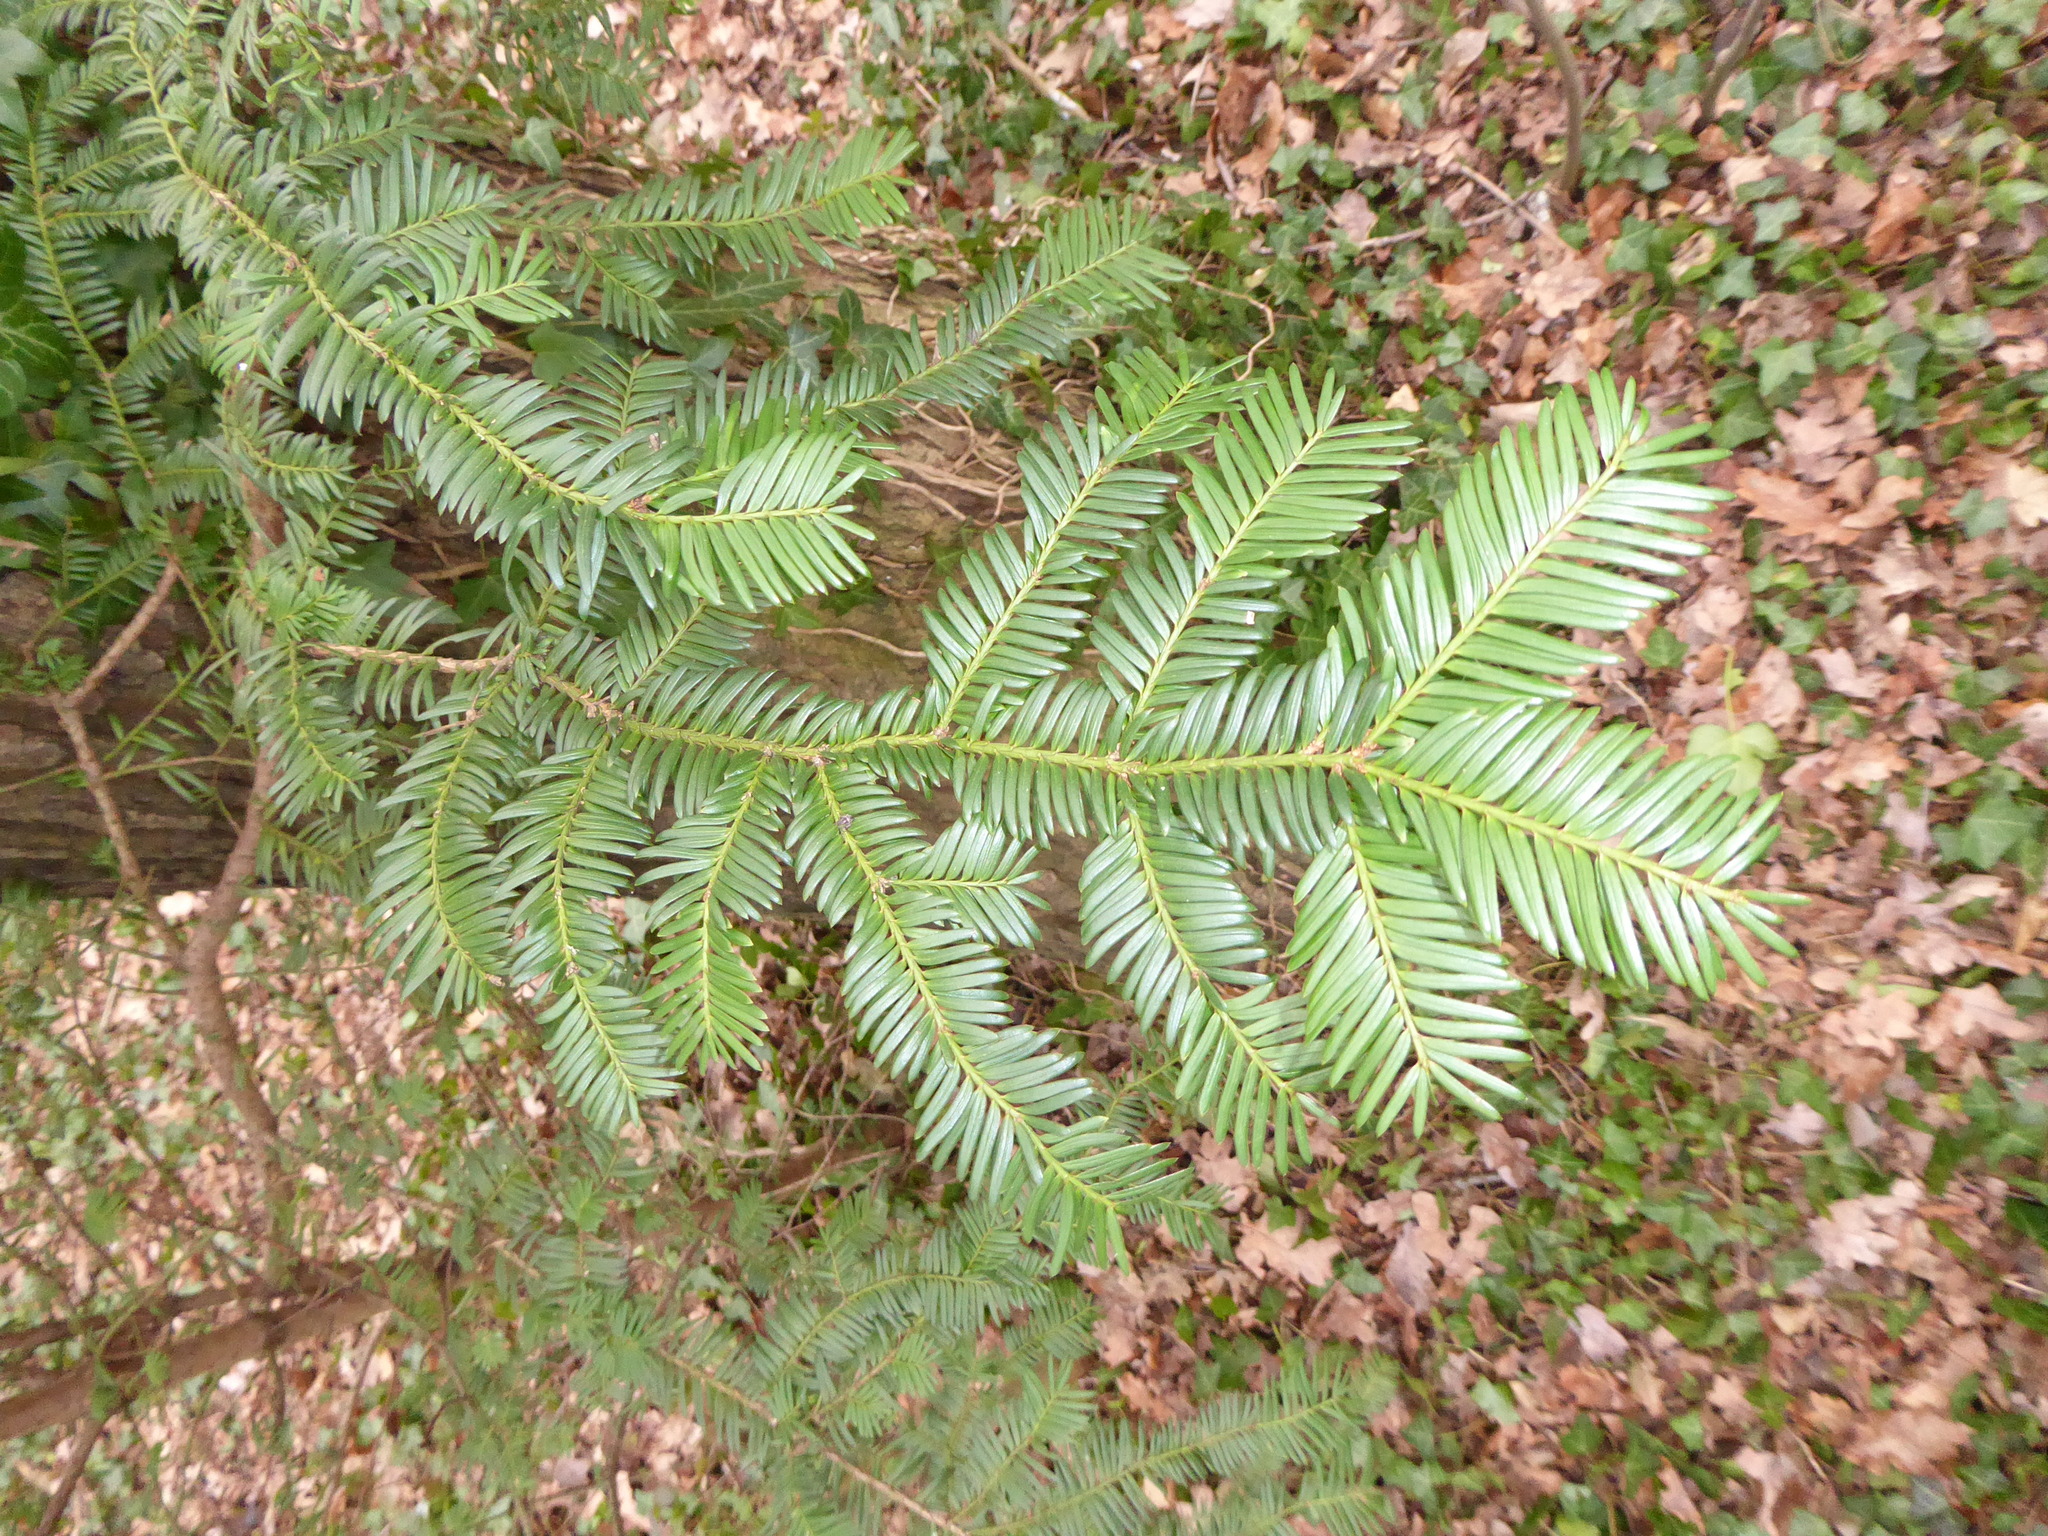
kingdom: Plantae
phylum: Tracheophyta
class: Pinopsida
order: Pinales
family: Taxaceae
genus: Taxus
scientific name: Taxus baccata
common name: Yew
